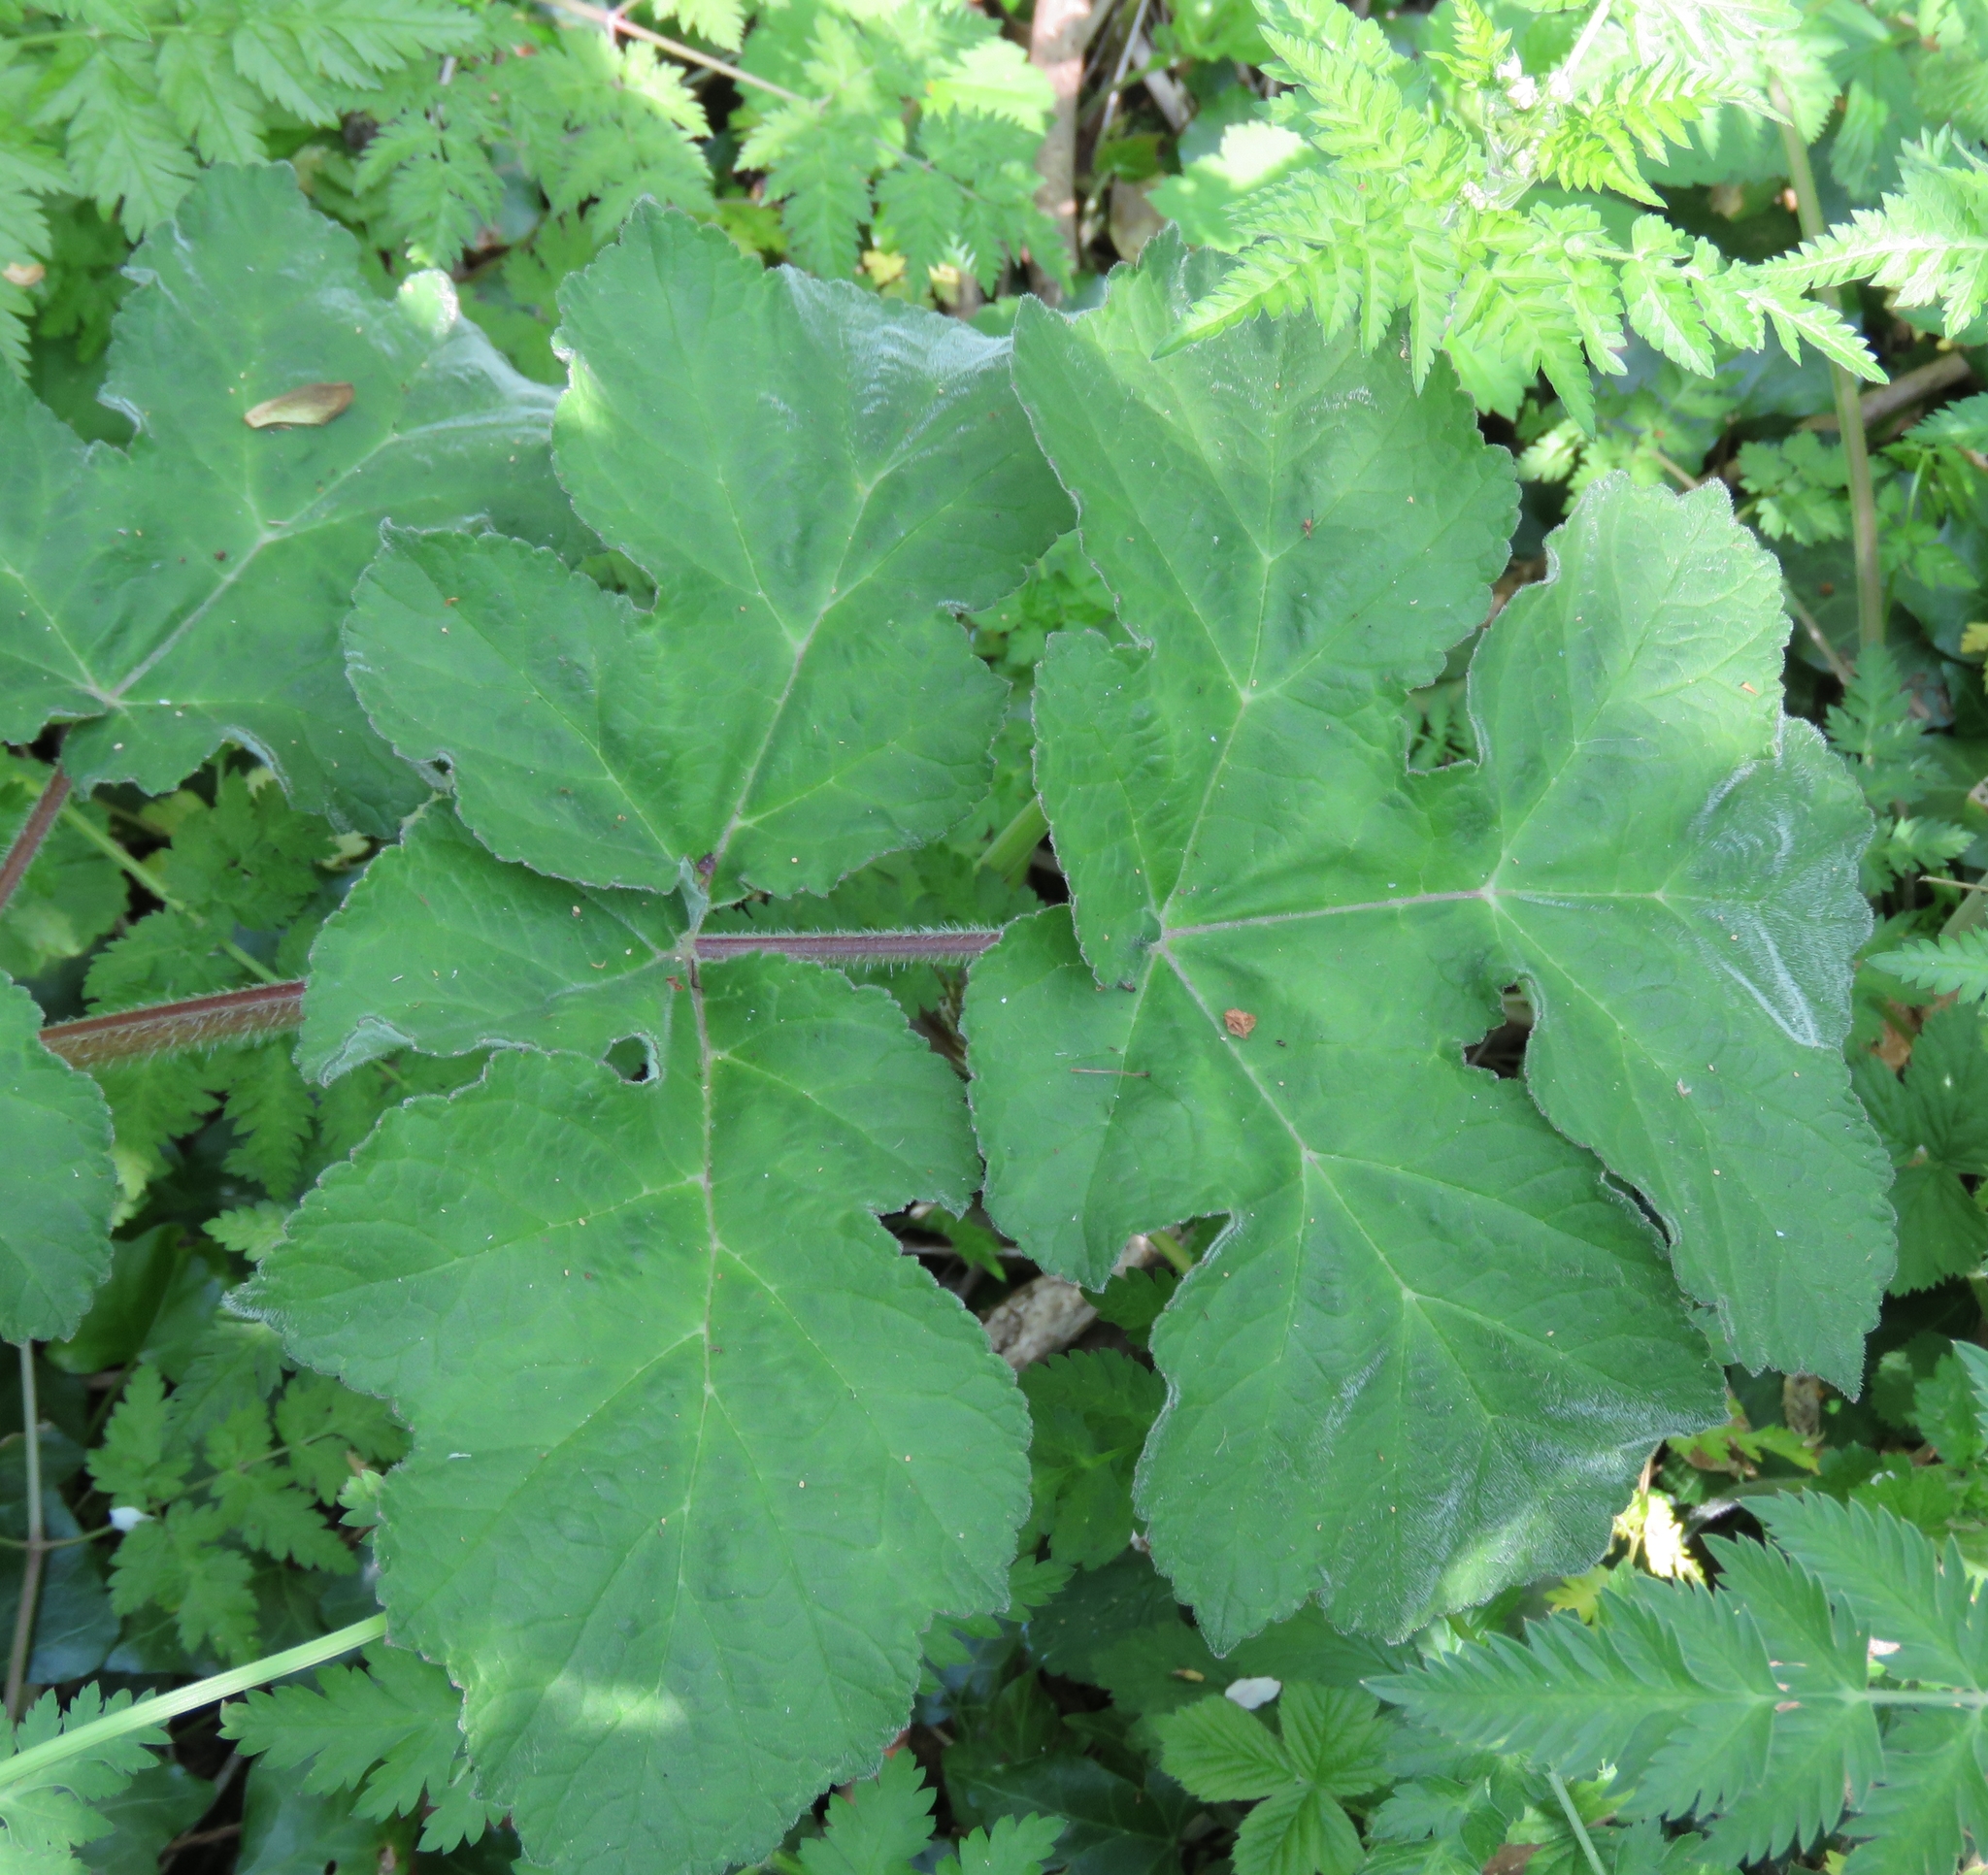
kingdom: Plantae
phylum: Tracheophyta
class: Magnoliopsida
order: Apiales
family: Apiaceae
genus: Heracleum
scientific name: Heracleum sphondylium
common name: Hogweed
